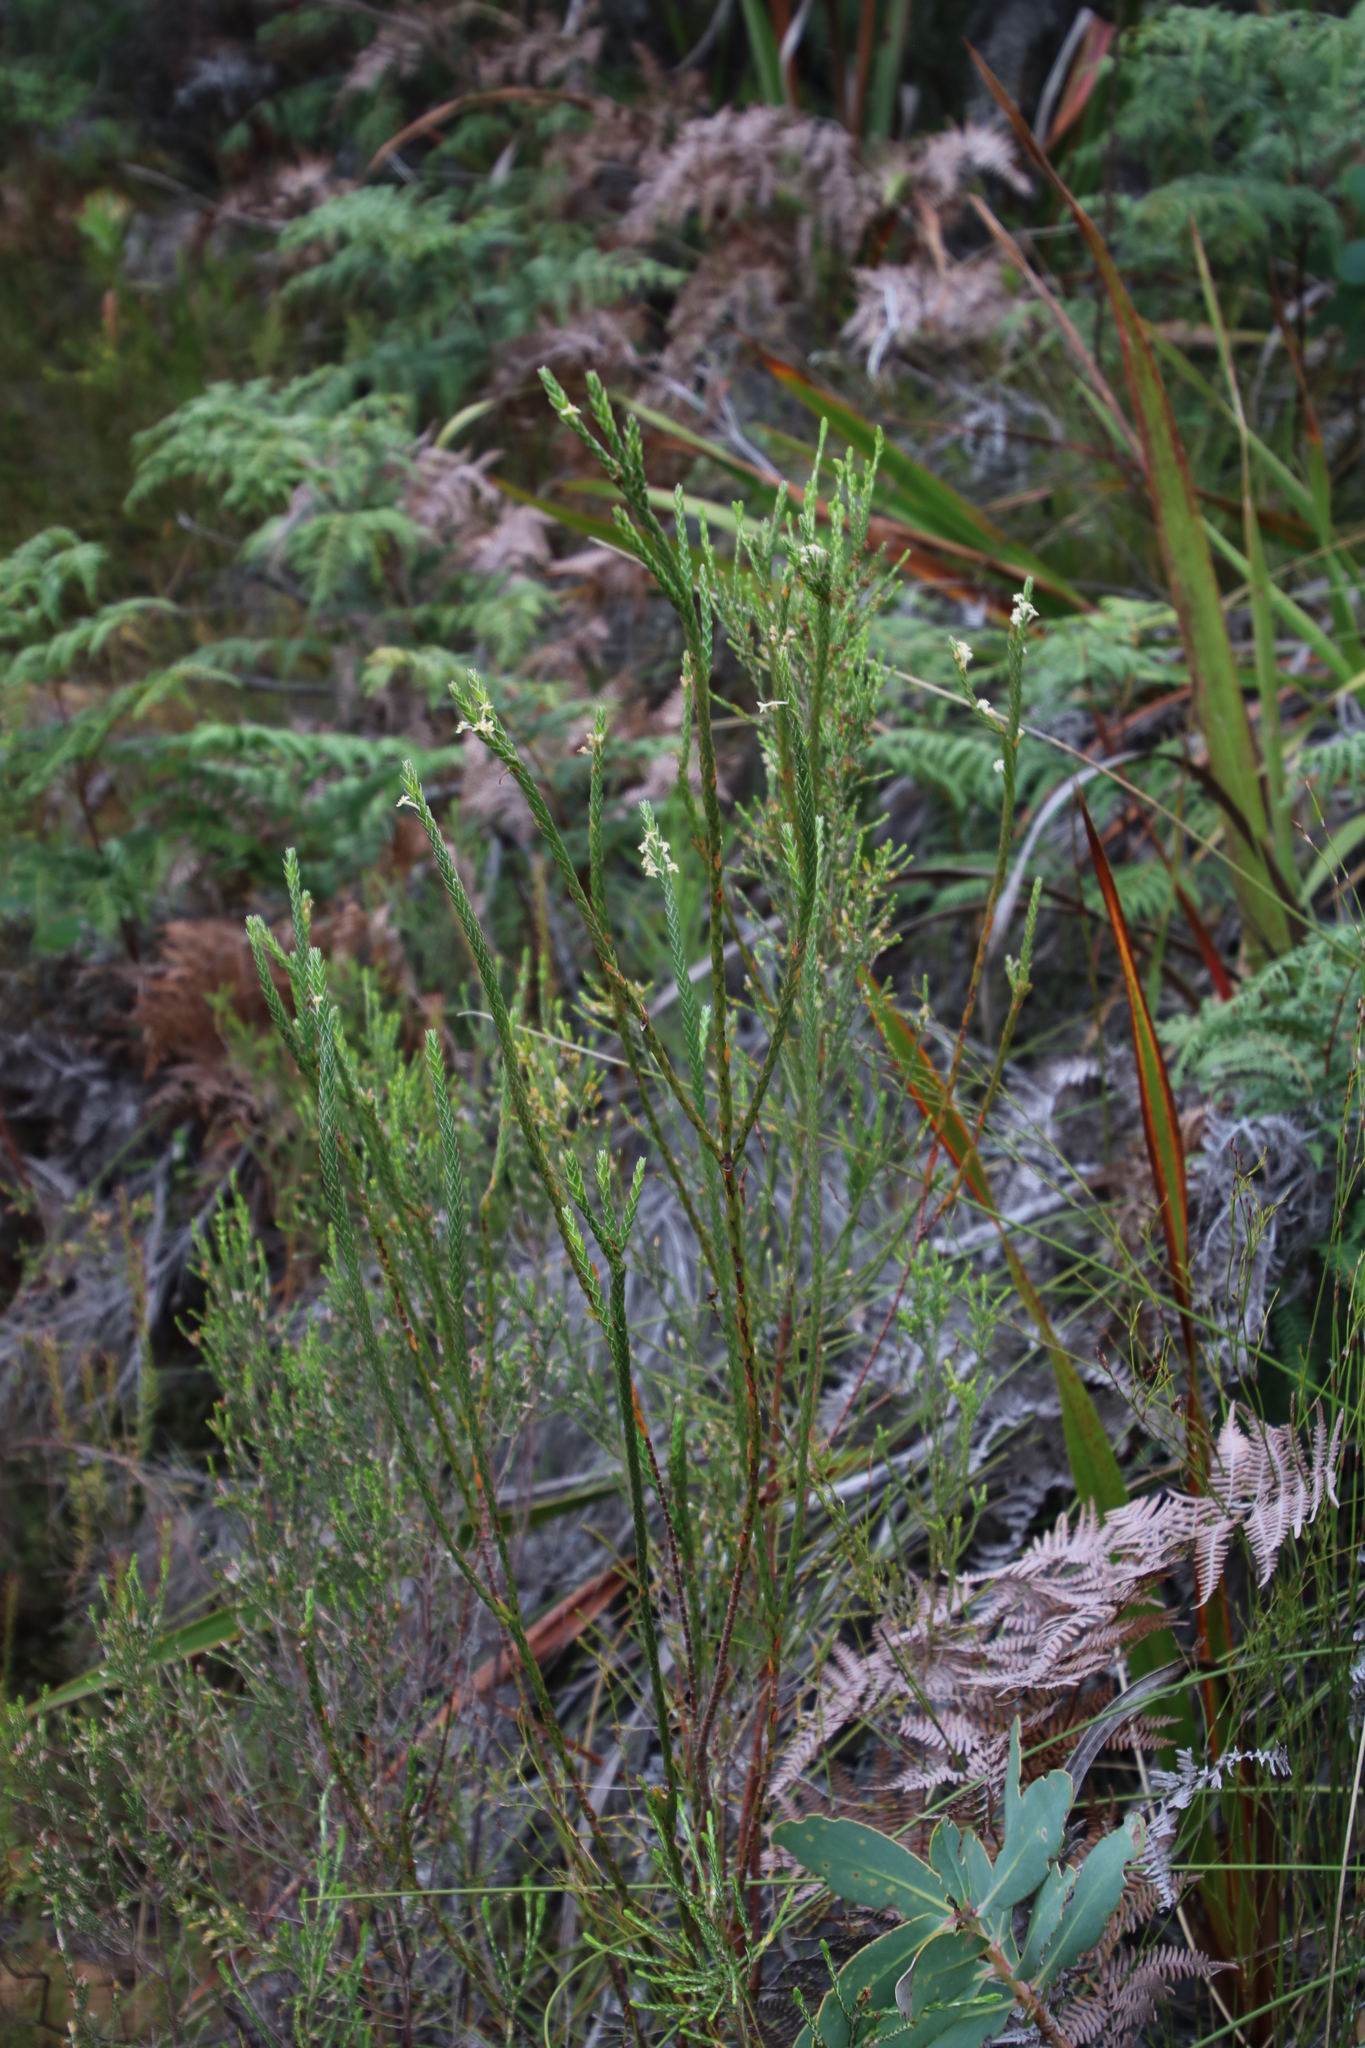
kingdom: Plantae
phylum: Tracheophyta
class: Magnoliopsida
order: Malvales
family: Thymelaeaceae
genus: Struthiola
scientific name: Struthiola ciliata
